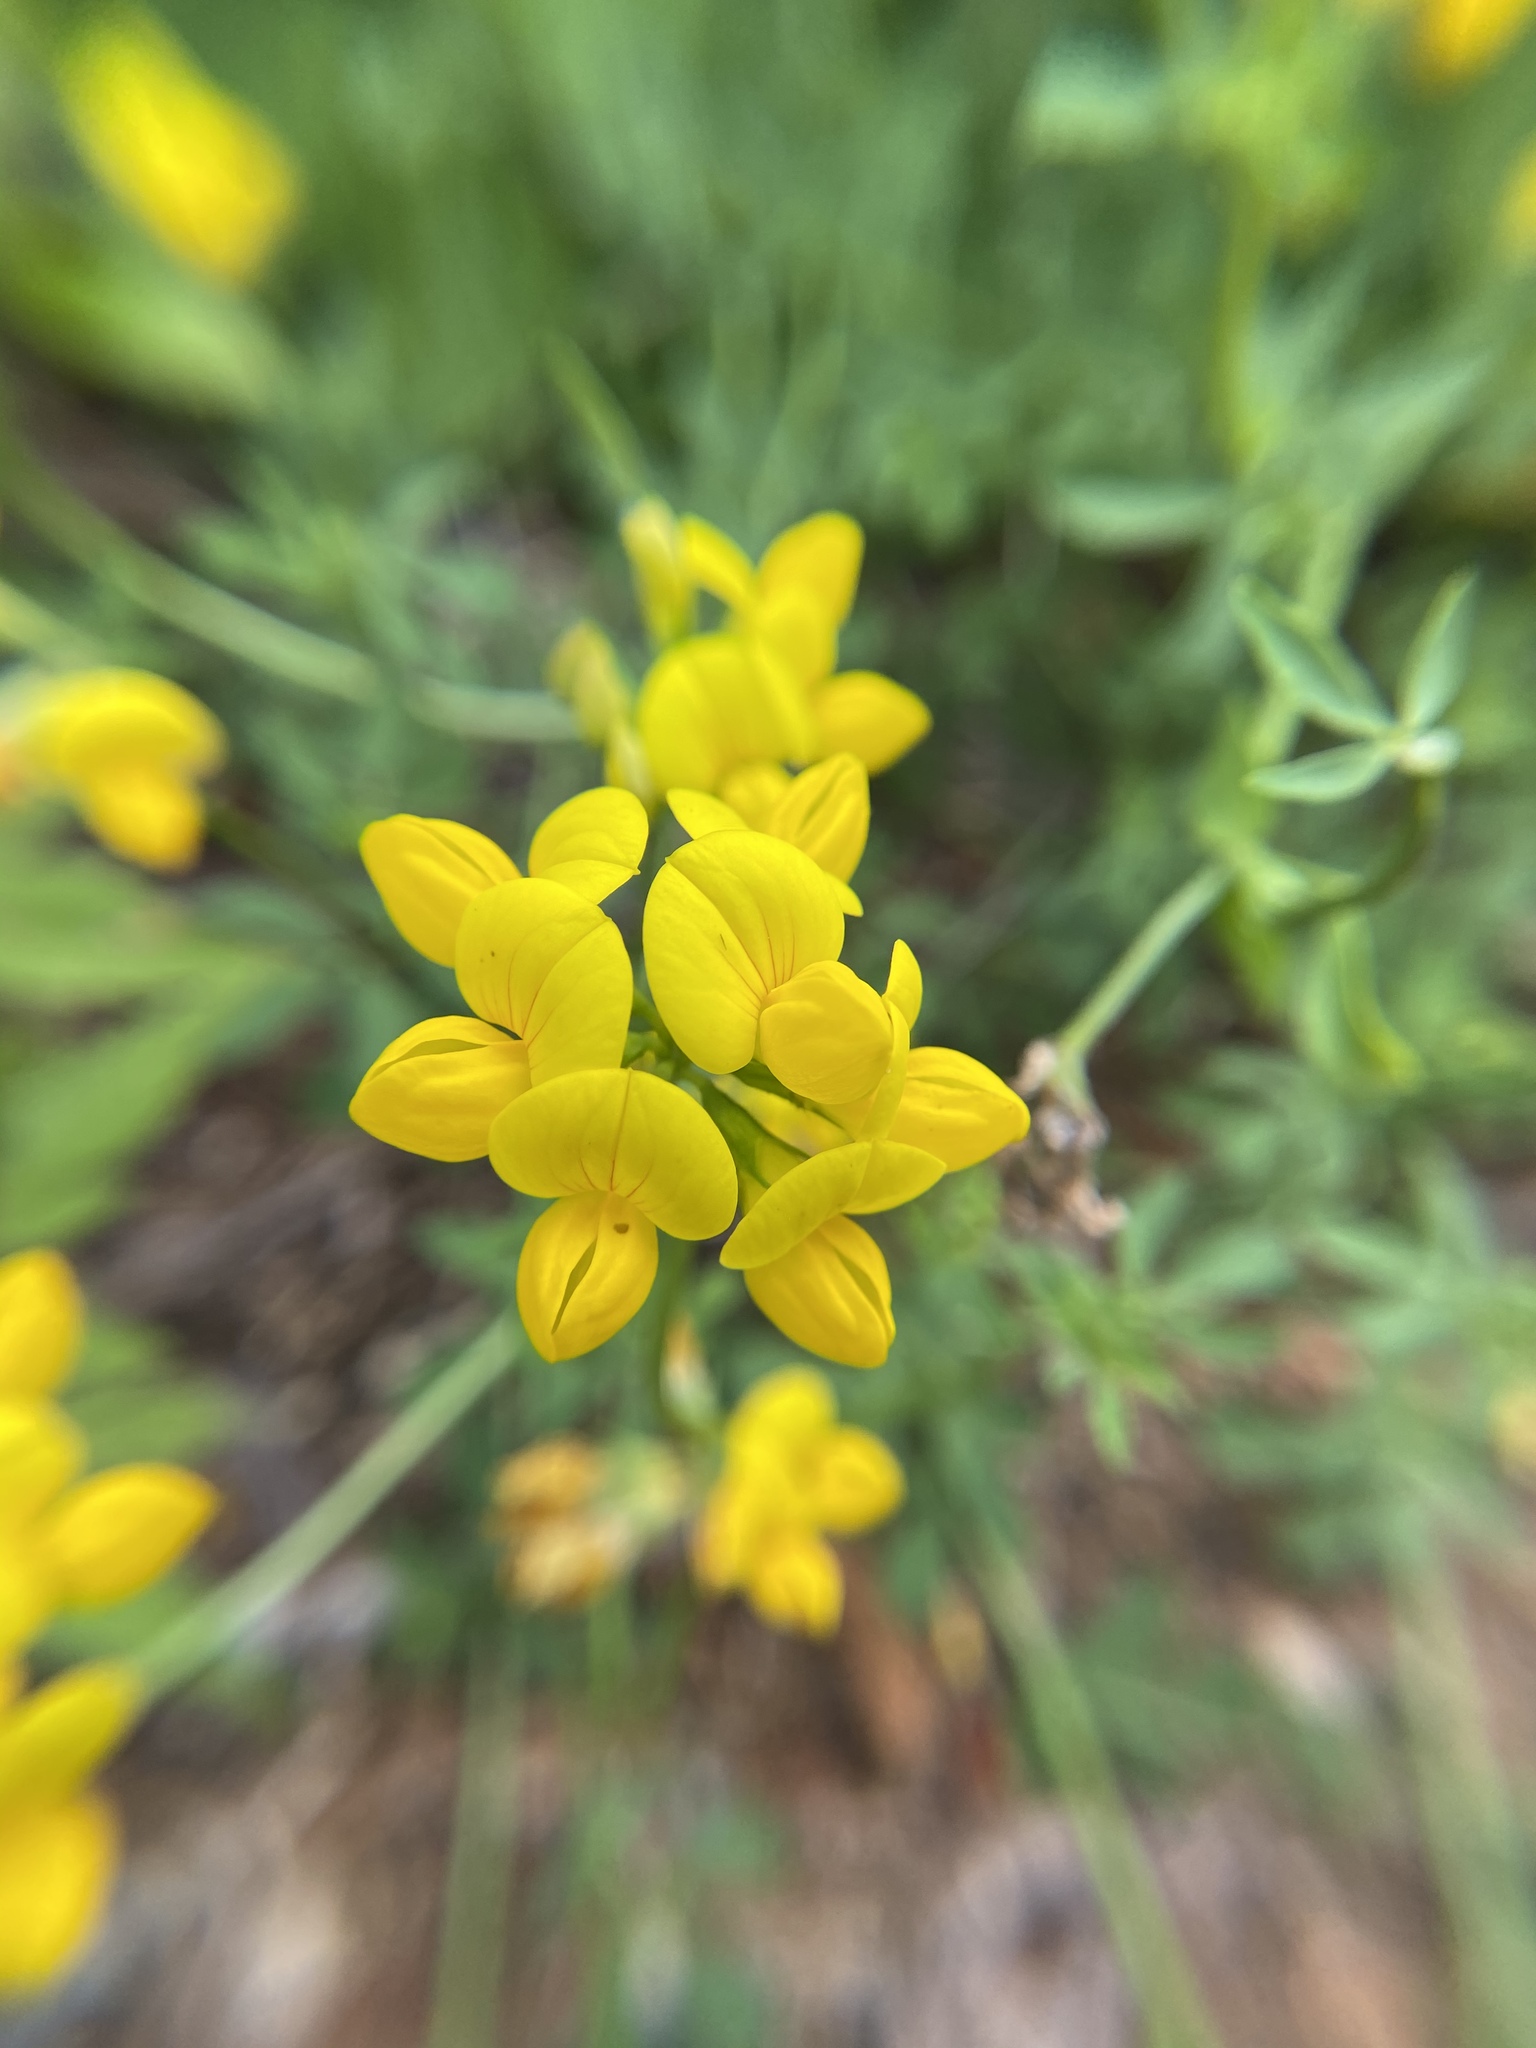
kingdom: Plantae
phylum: Tracheophyta
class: Magnoliopsida
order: Fabales
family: Fabaceae
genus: Lotus
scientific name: Lotus corniculatus
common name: Common bird's-foot-trefoil
